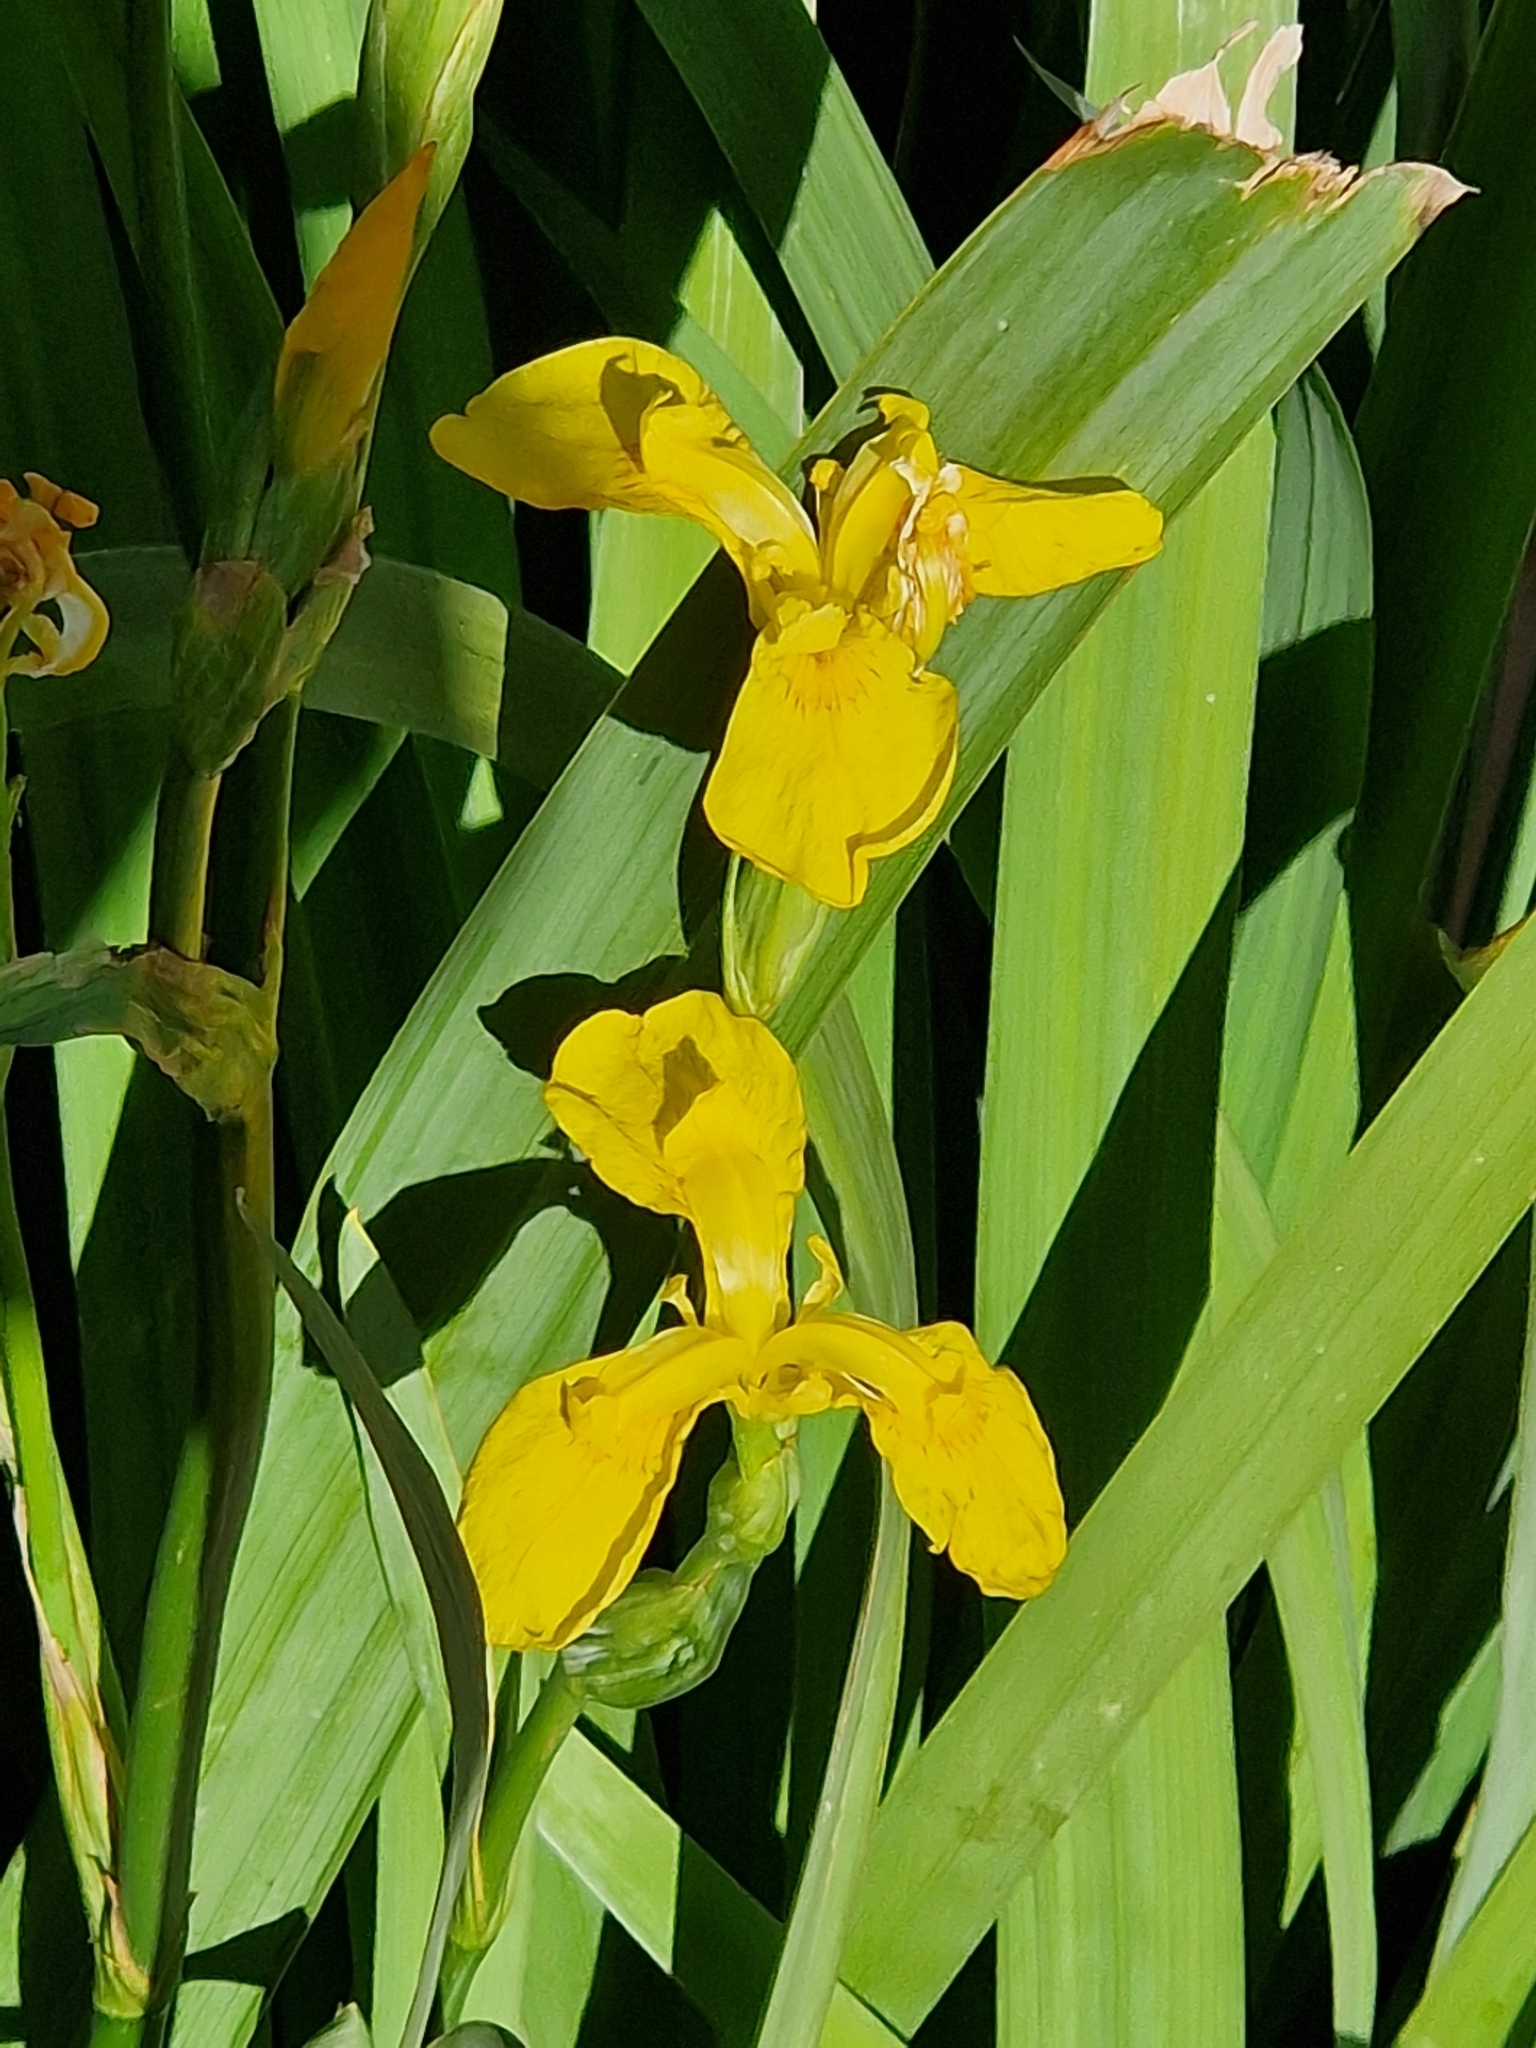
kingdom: Plantae
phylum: Tracheophyta
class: Liliopsida
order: Asparagales
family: Iridaceae
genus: Iris
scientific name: Iris pseudacorus
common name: Yellow flag
